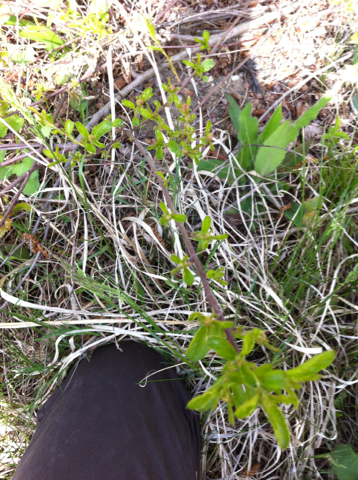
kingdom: Plantae
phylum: Tracheophyta
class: Magnoliopsida
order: Rosales
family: Rhamnaceae
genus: Ceanothus
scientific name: Ceanothus herbaceus
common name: Inland ceanothus
